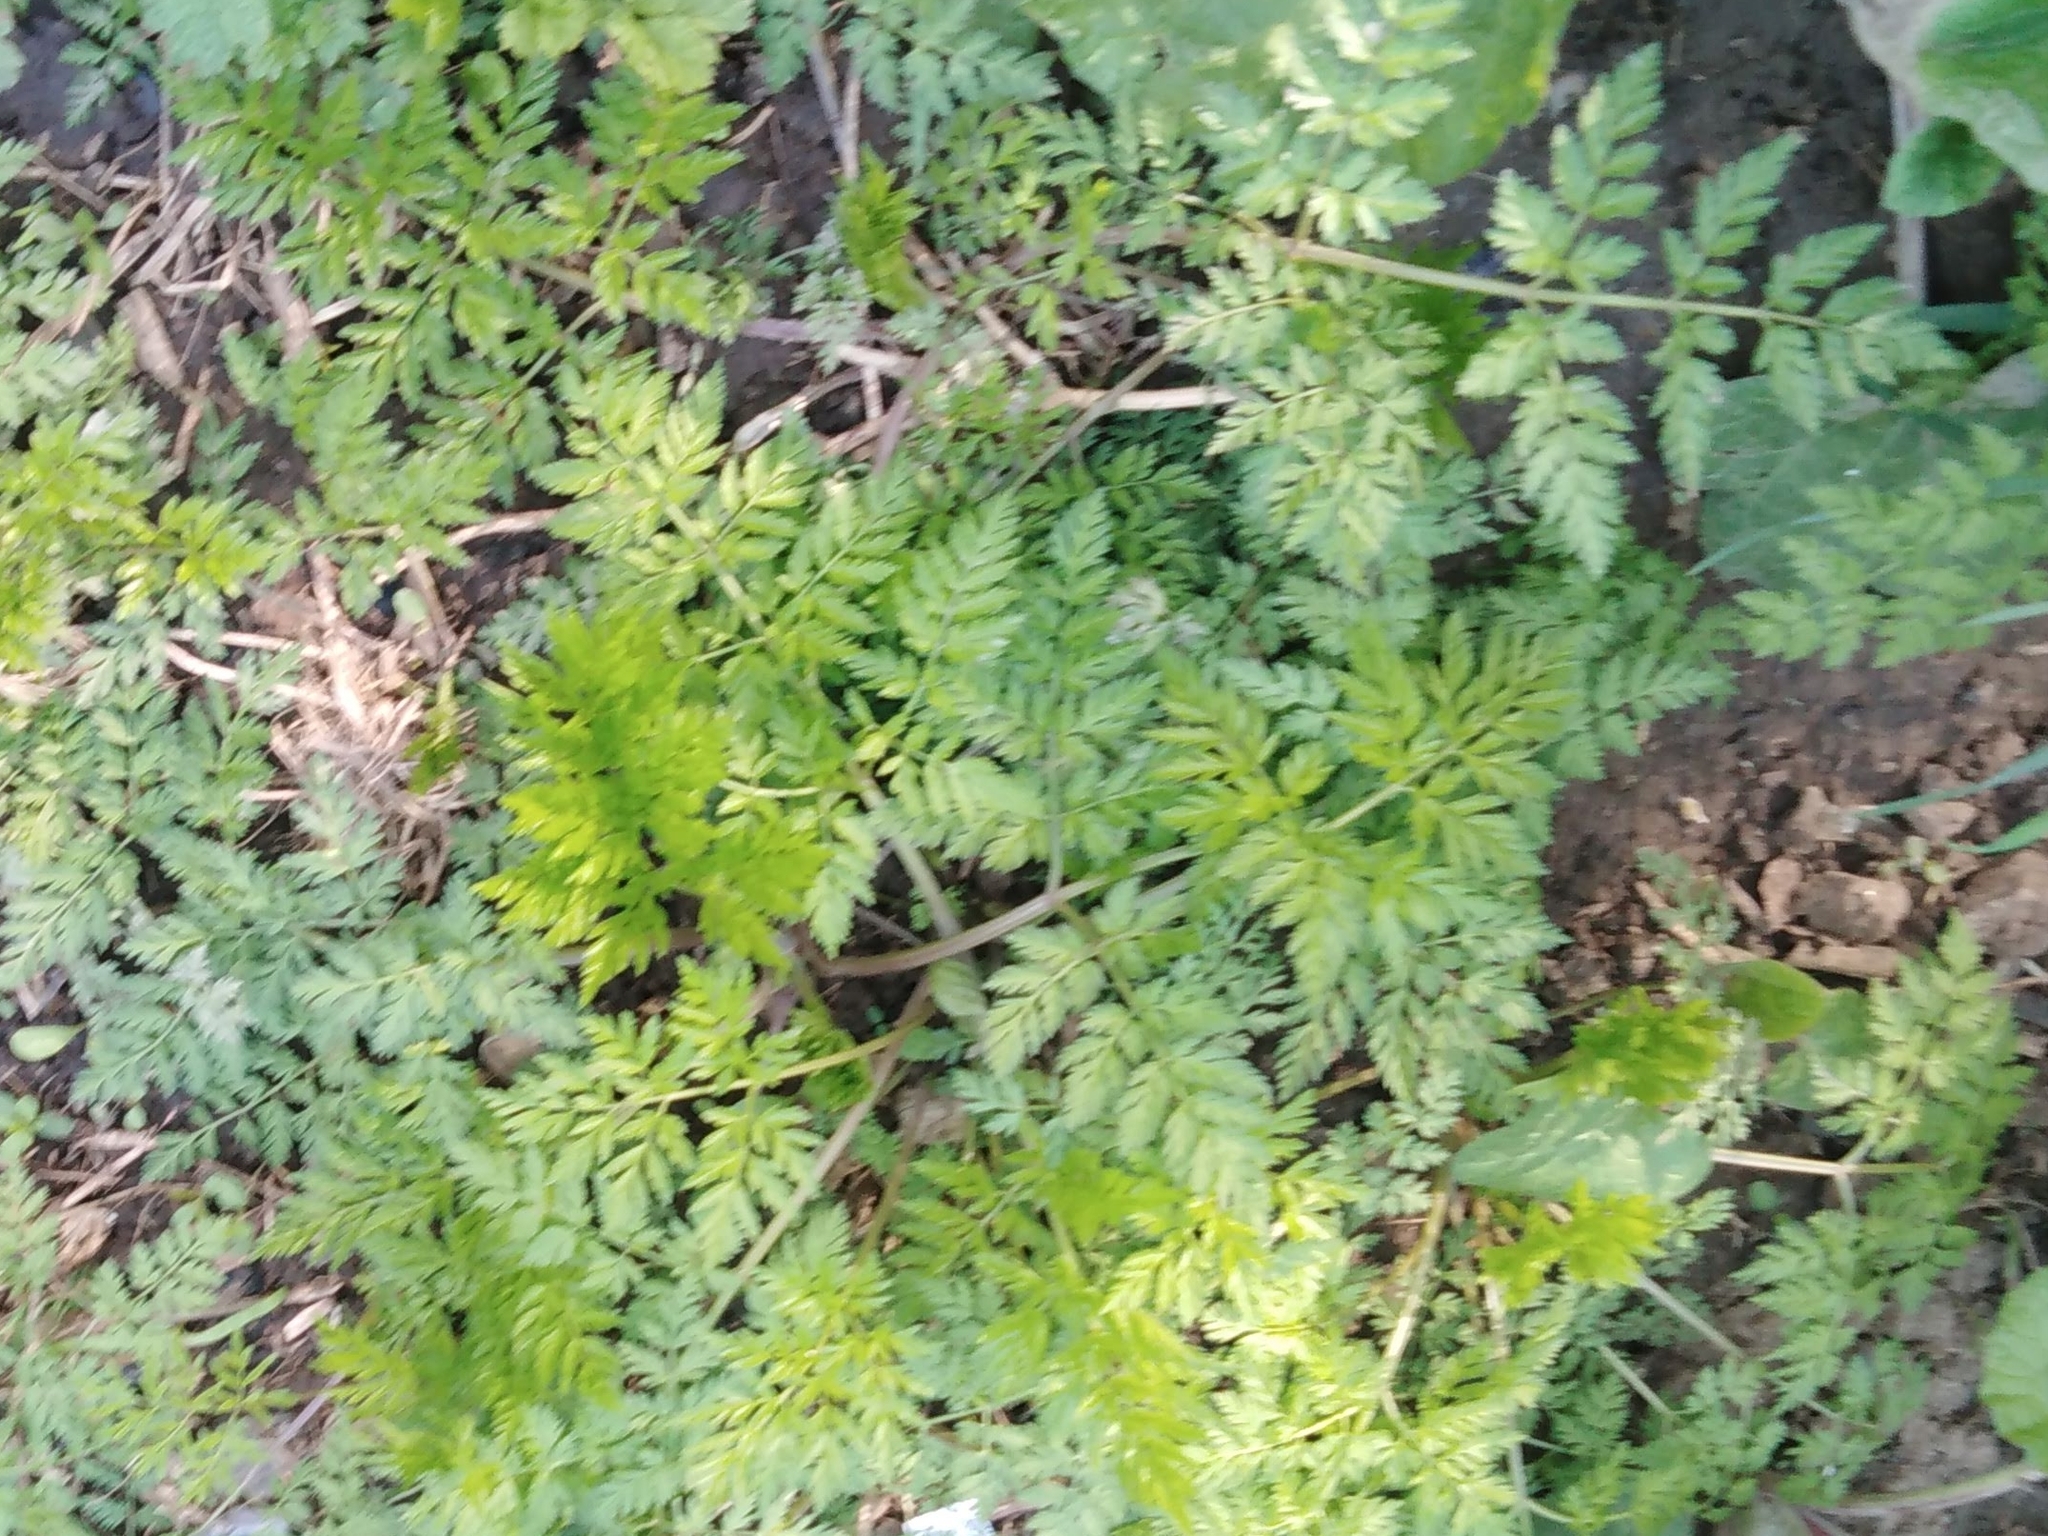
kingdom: Plantae
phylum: Tracheophyta
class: Magnoliopsida
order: Apiales
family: Apiaceae
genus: Anthriscus
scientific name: Anthriscus sylvestris
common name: Cow parsley
